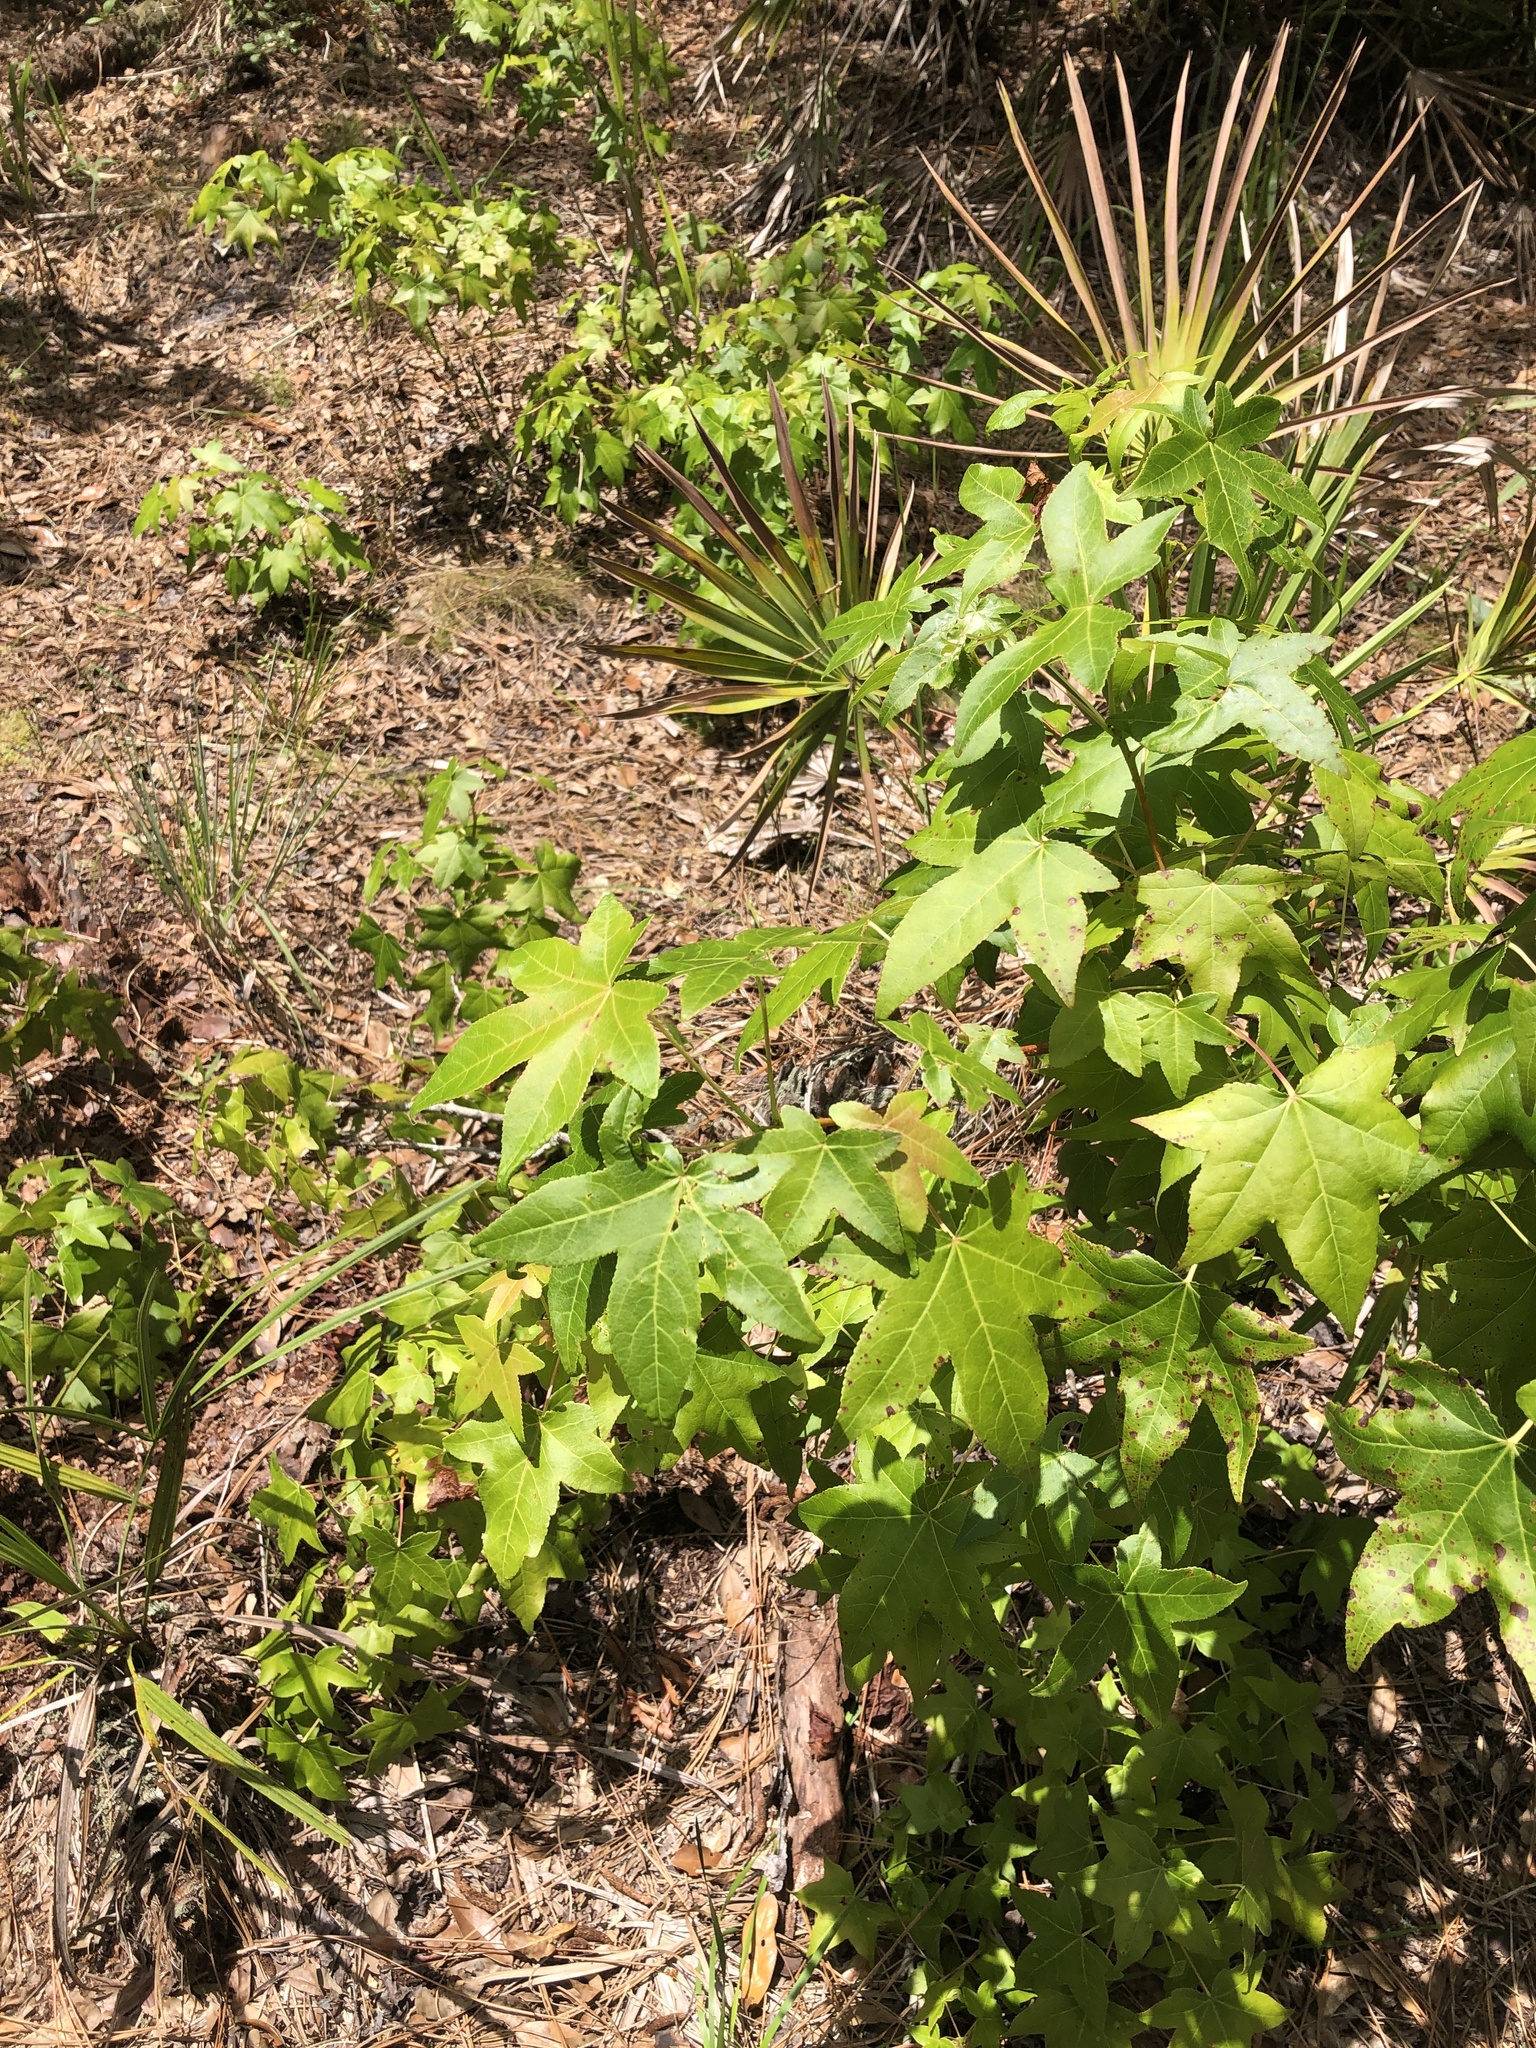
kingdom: Plantae
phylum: Tracheophyta
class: Magnoliopsida
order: Saxifragales
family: Altingiaceae
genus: Liquidambar
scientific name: Liquidambar styraciflua
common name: Sweet gum
